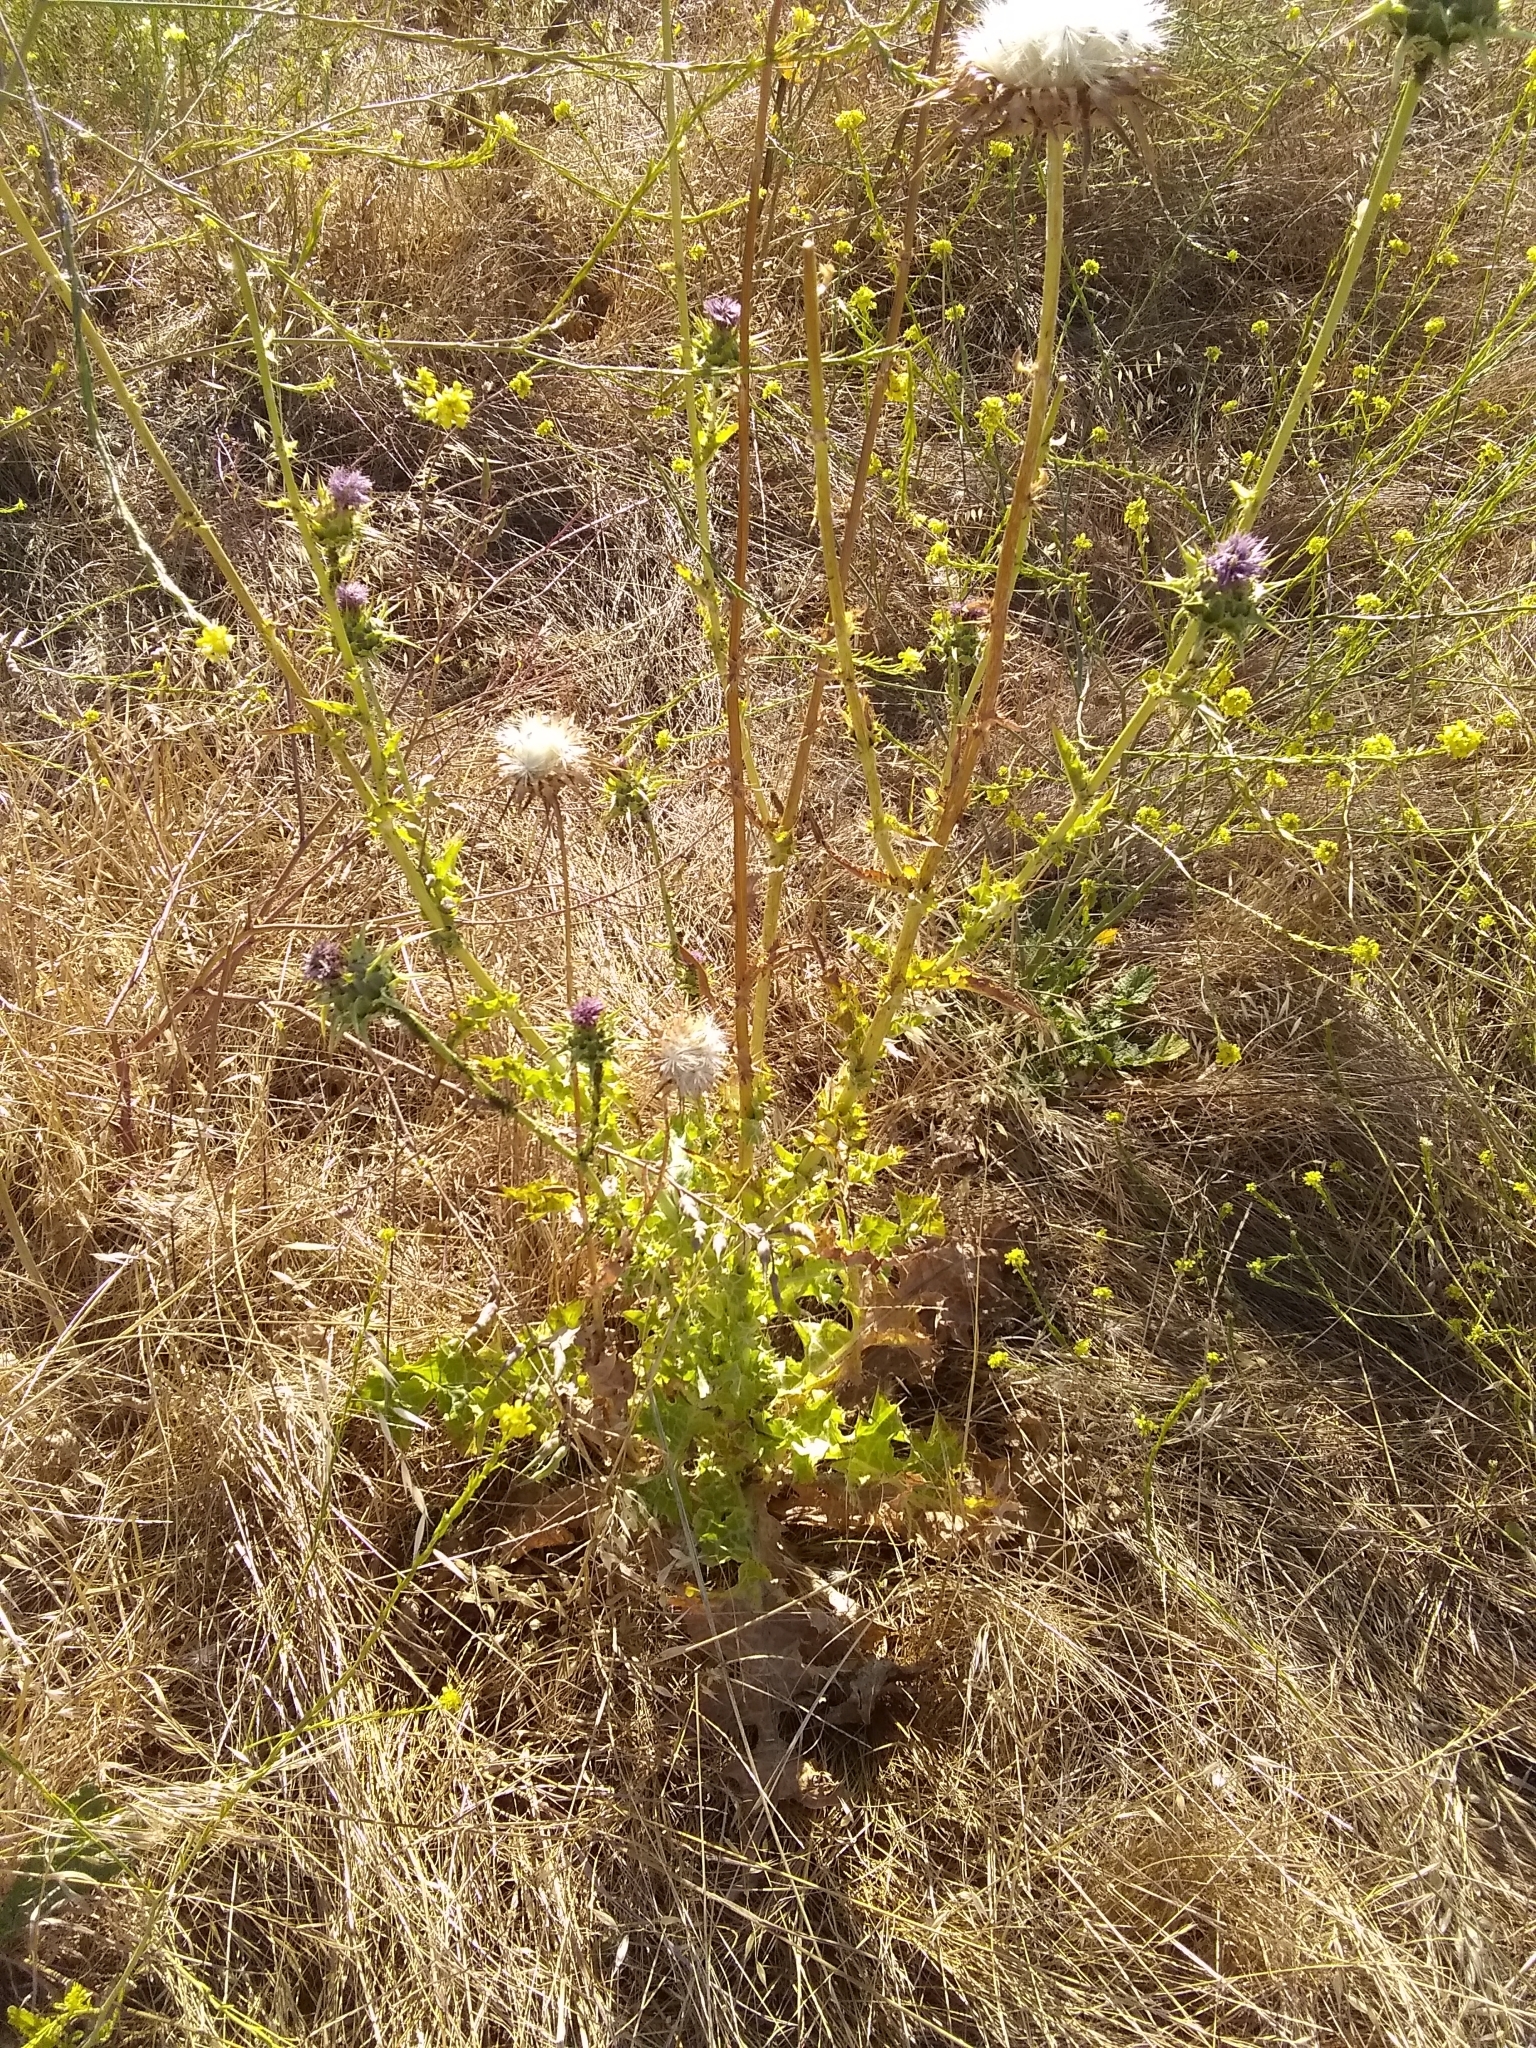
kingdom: Plantae
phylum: Tracheophyta
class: Magnoliopsida
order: Asterales
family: Asteraceae
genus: Silybum
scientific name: Silybum marianum
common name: Milk thistle
